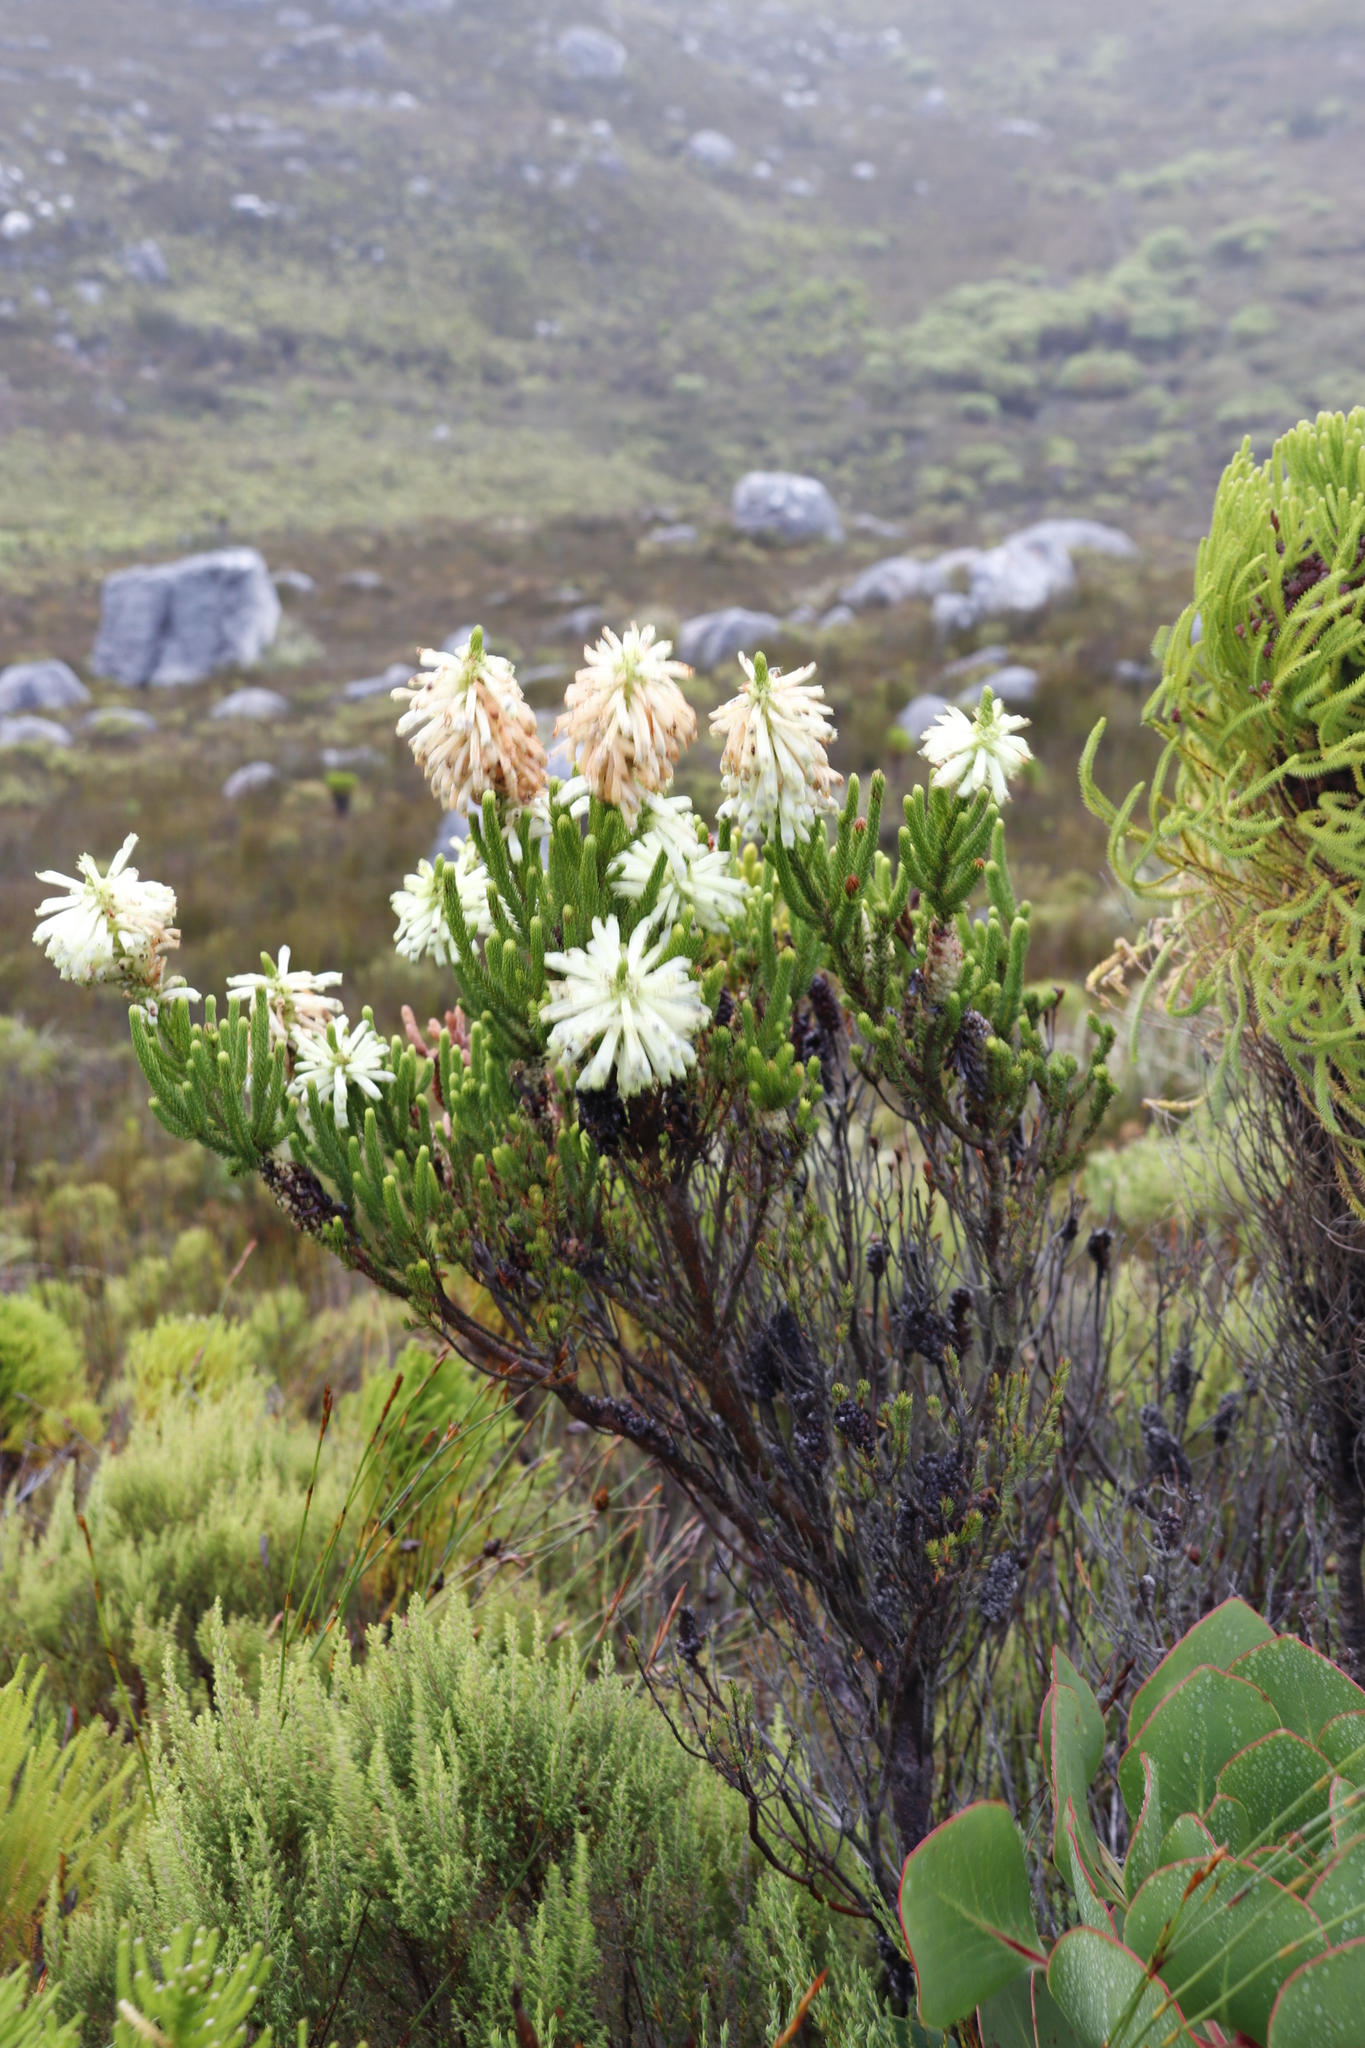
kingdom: Plantae
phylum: Tracheophyta
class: Magnoliopsida
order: Ericales
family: Ericaceae
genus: Erica
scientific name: Erica sessiliflora
